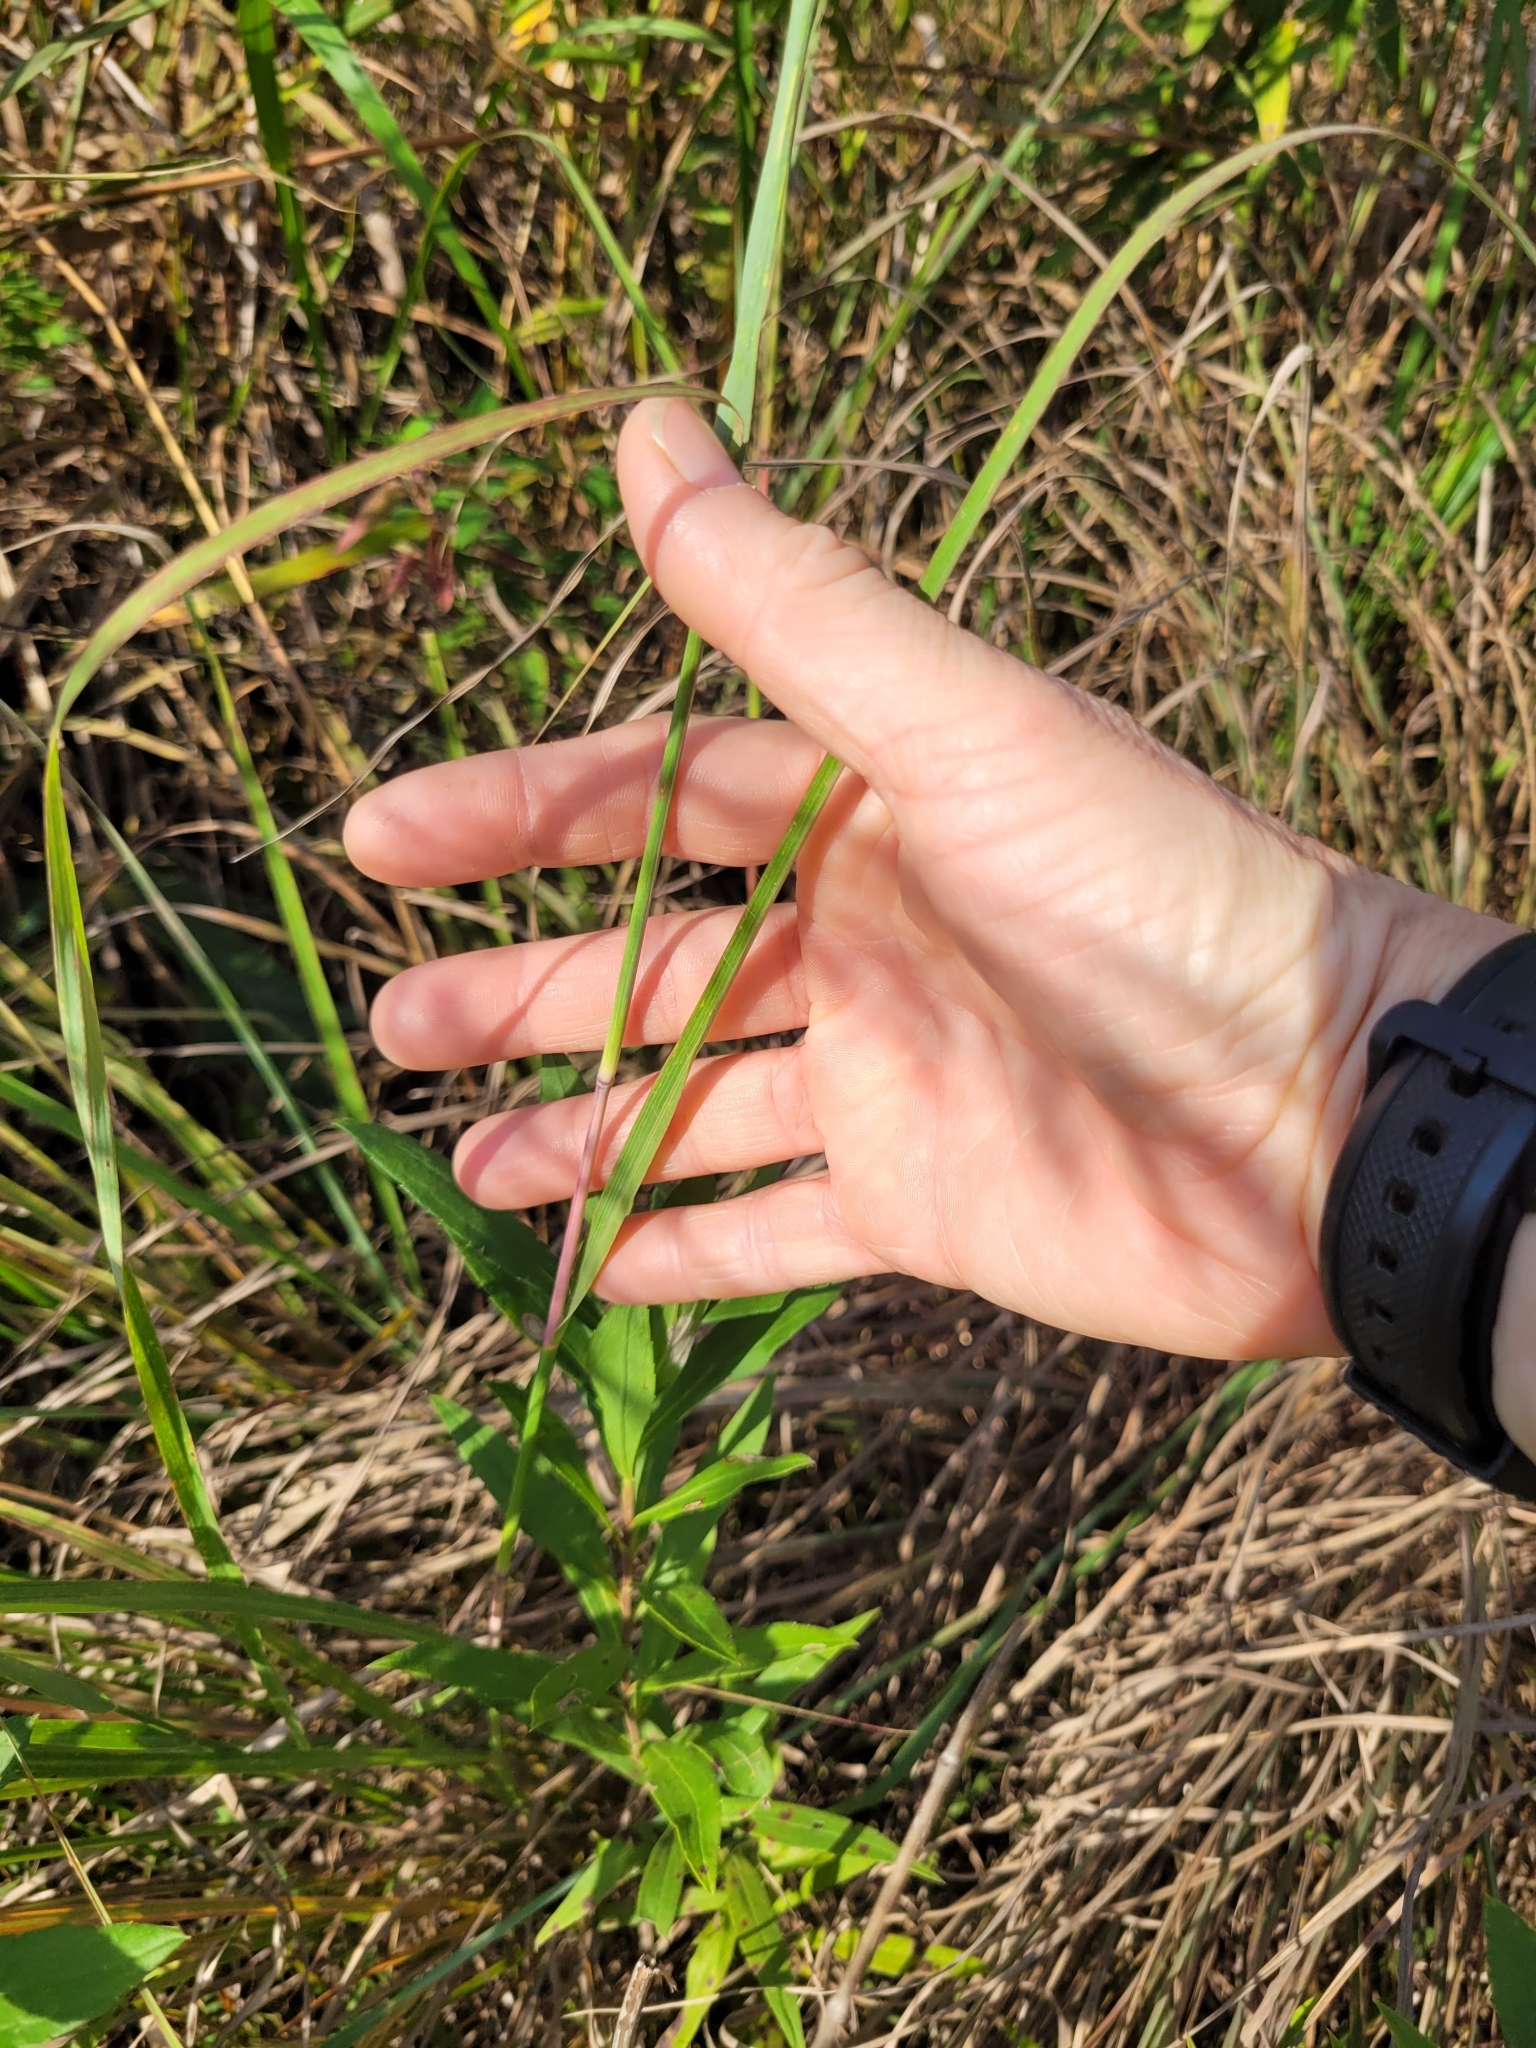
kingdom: Plantae
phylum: Tracheophyta
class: Liliopsida
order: Poales
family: Poaceae
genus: Andropogon
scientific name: Andropogon gerardi
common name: Big bluestem
